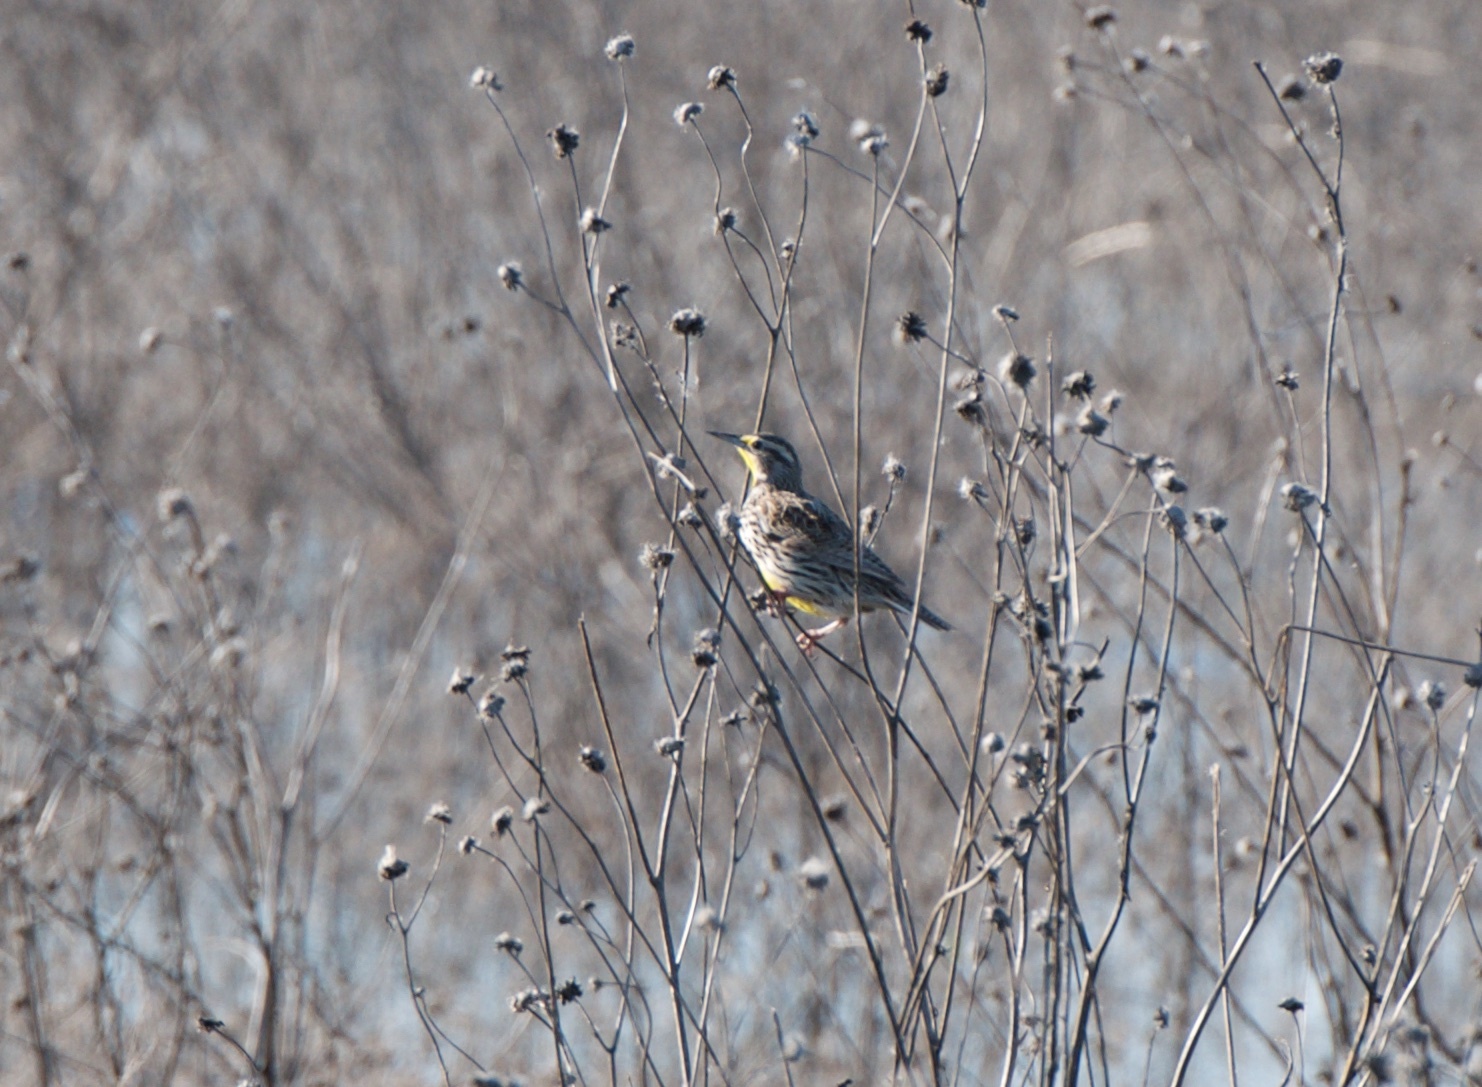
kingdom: Animalia
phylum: Chordata
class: Aves
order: Passeriformes
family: Icteridae
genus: Sturnella
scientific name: Sturnella neglecta
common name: Western meadowlark
